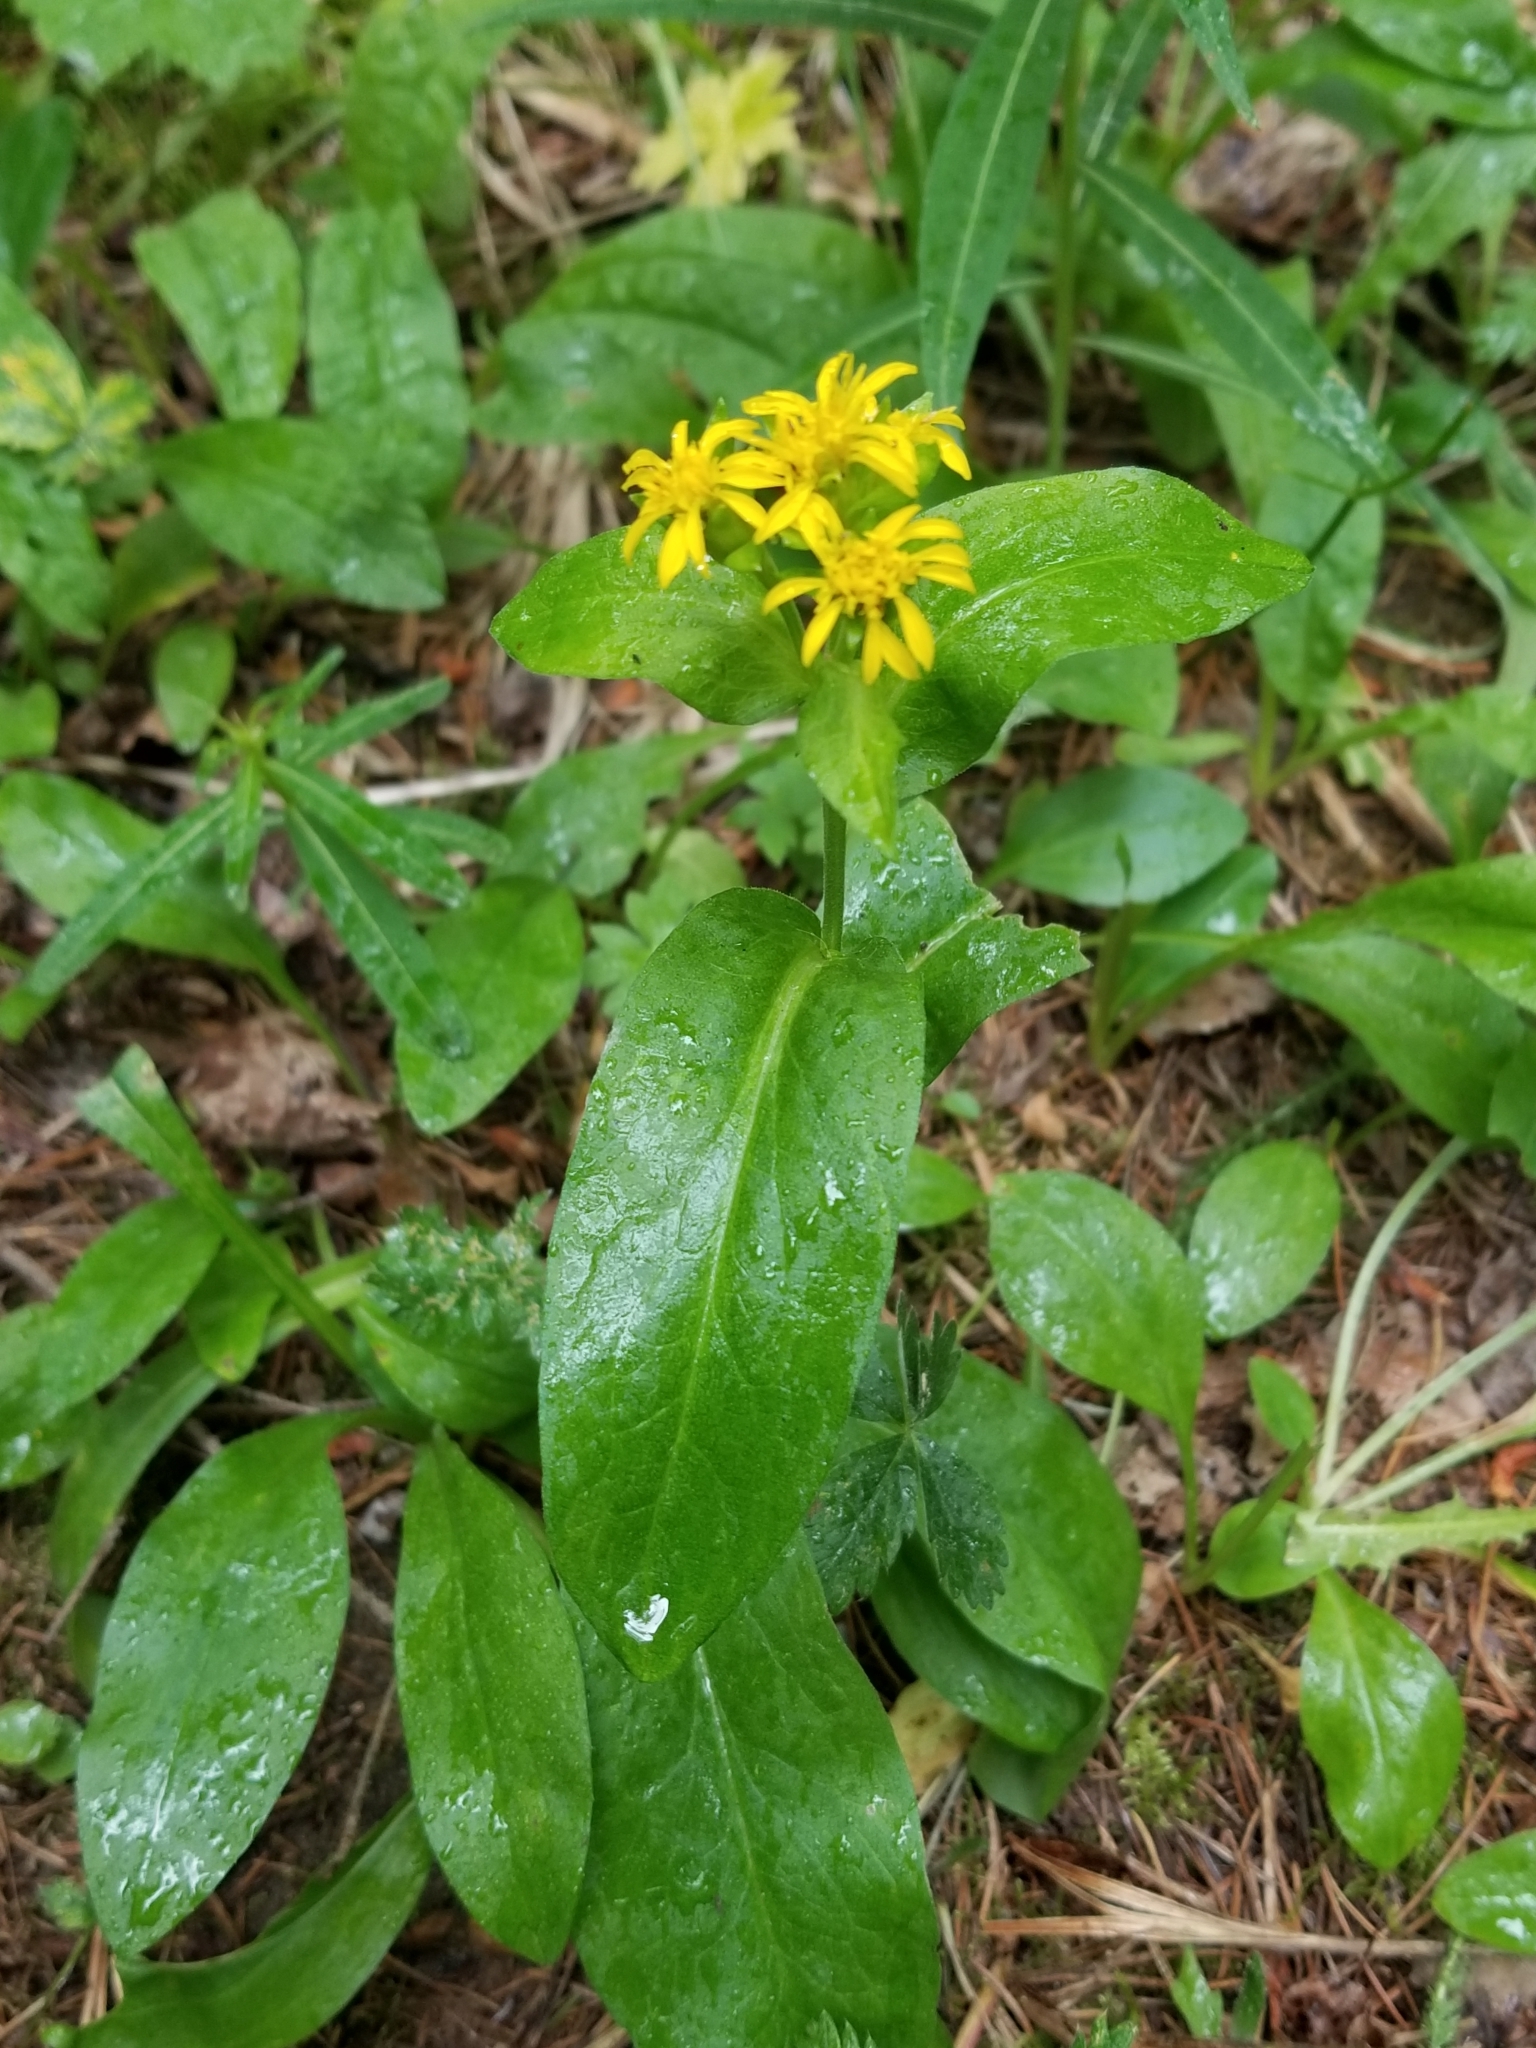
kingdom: Plantae
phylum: Tracheophyta
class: Magnoliopsida
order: Asterales
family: Asteraceae
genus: Oreochrysum
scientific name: Oreochrysum parryi
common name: Parry's goldenweed
